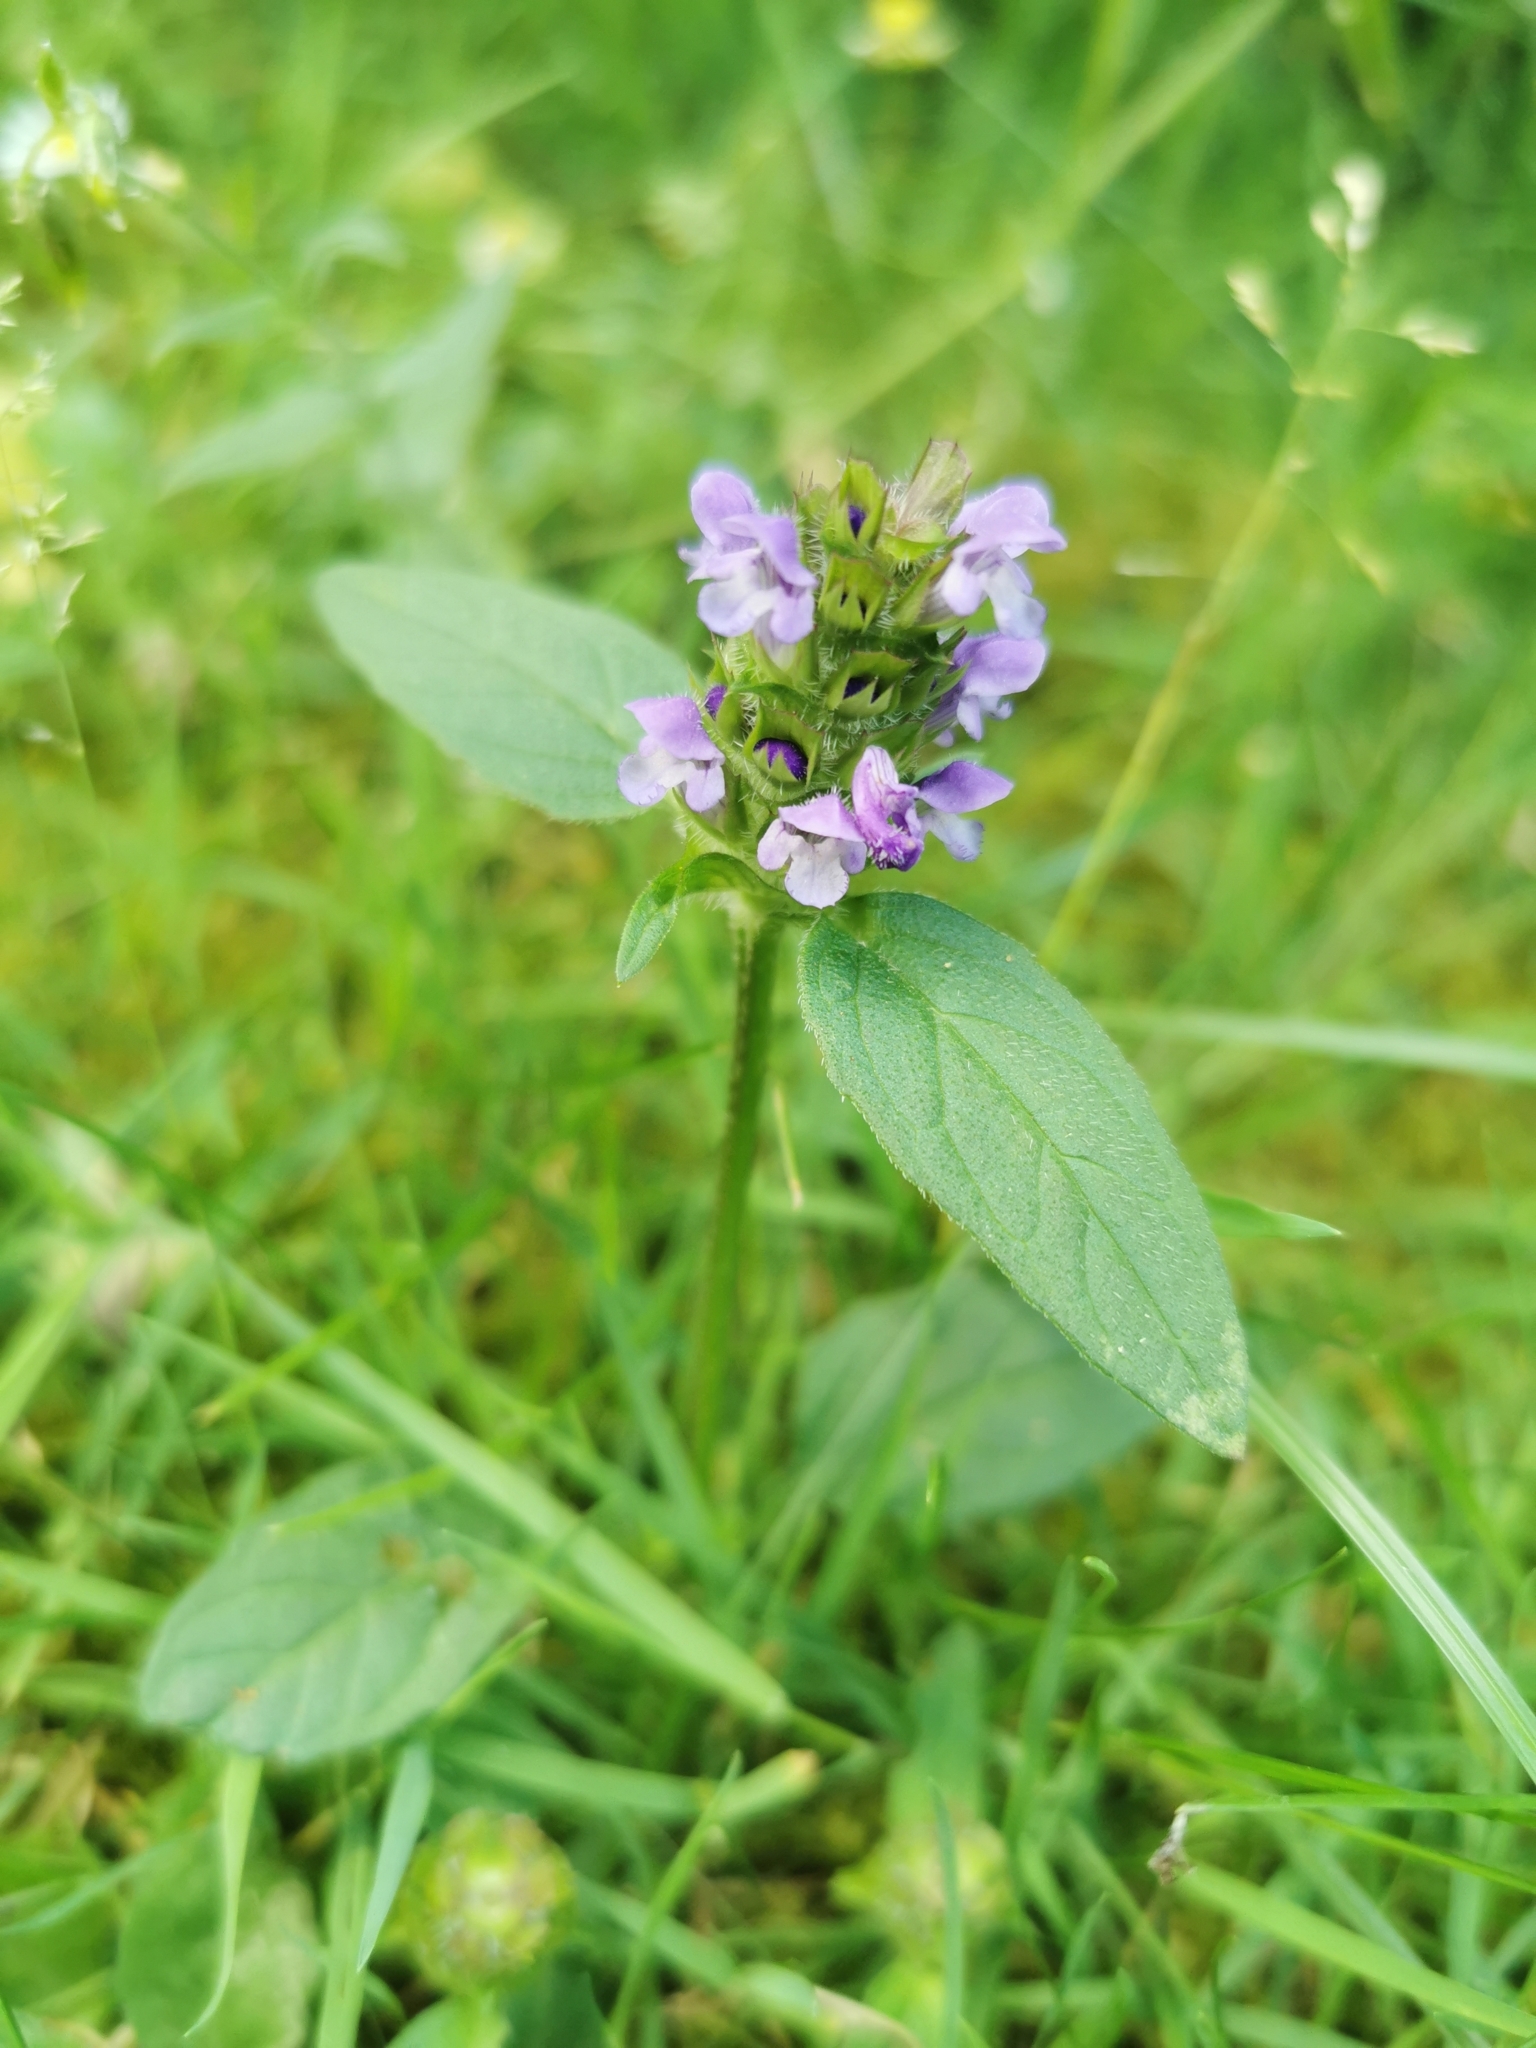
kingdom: Plantae
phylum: Tracheophyta
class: Magnoliopsida
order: Lamiales
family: Lamiaceae
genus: Prunella
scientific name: Prunella vulgaris
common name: Heal-all
